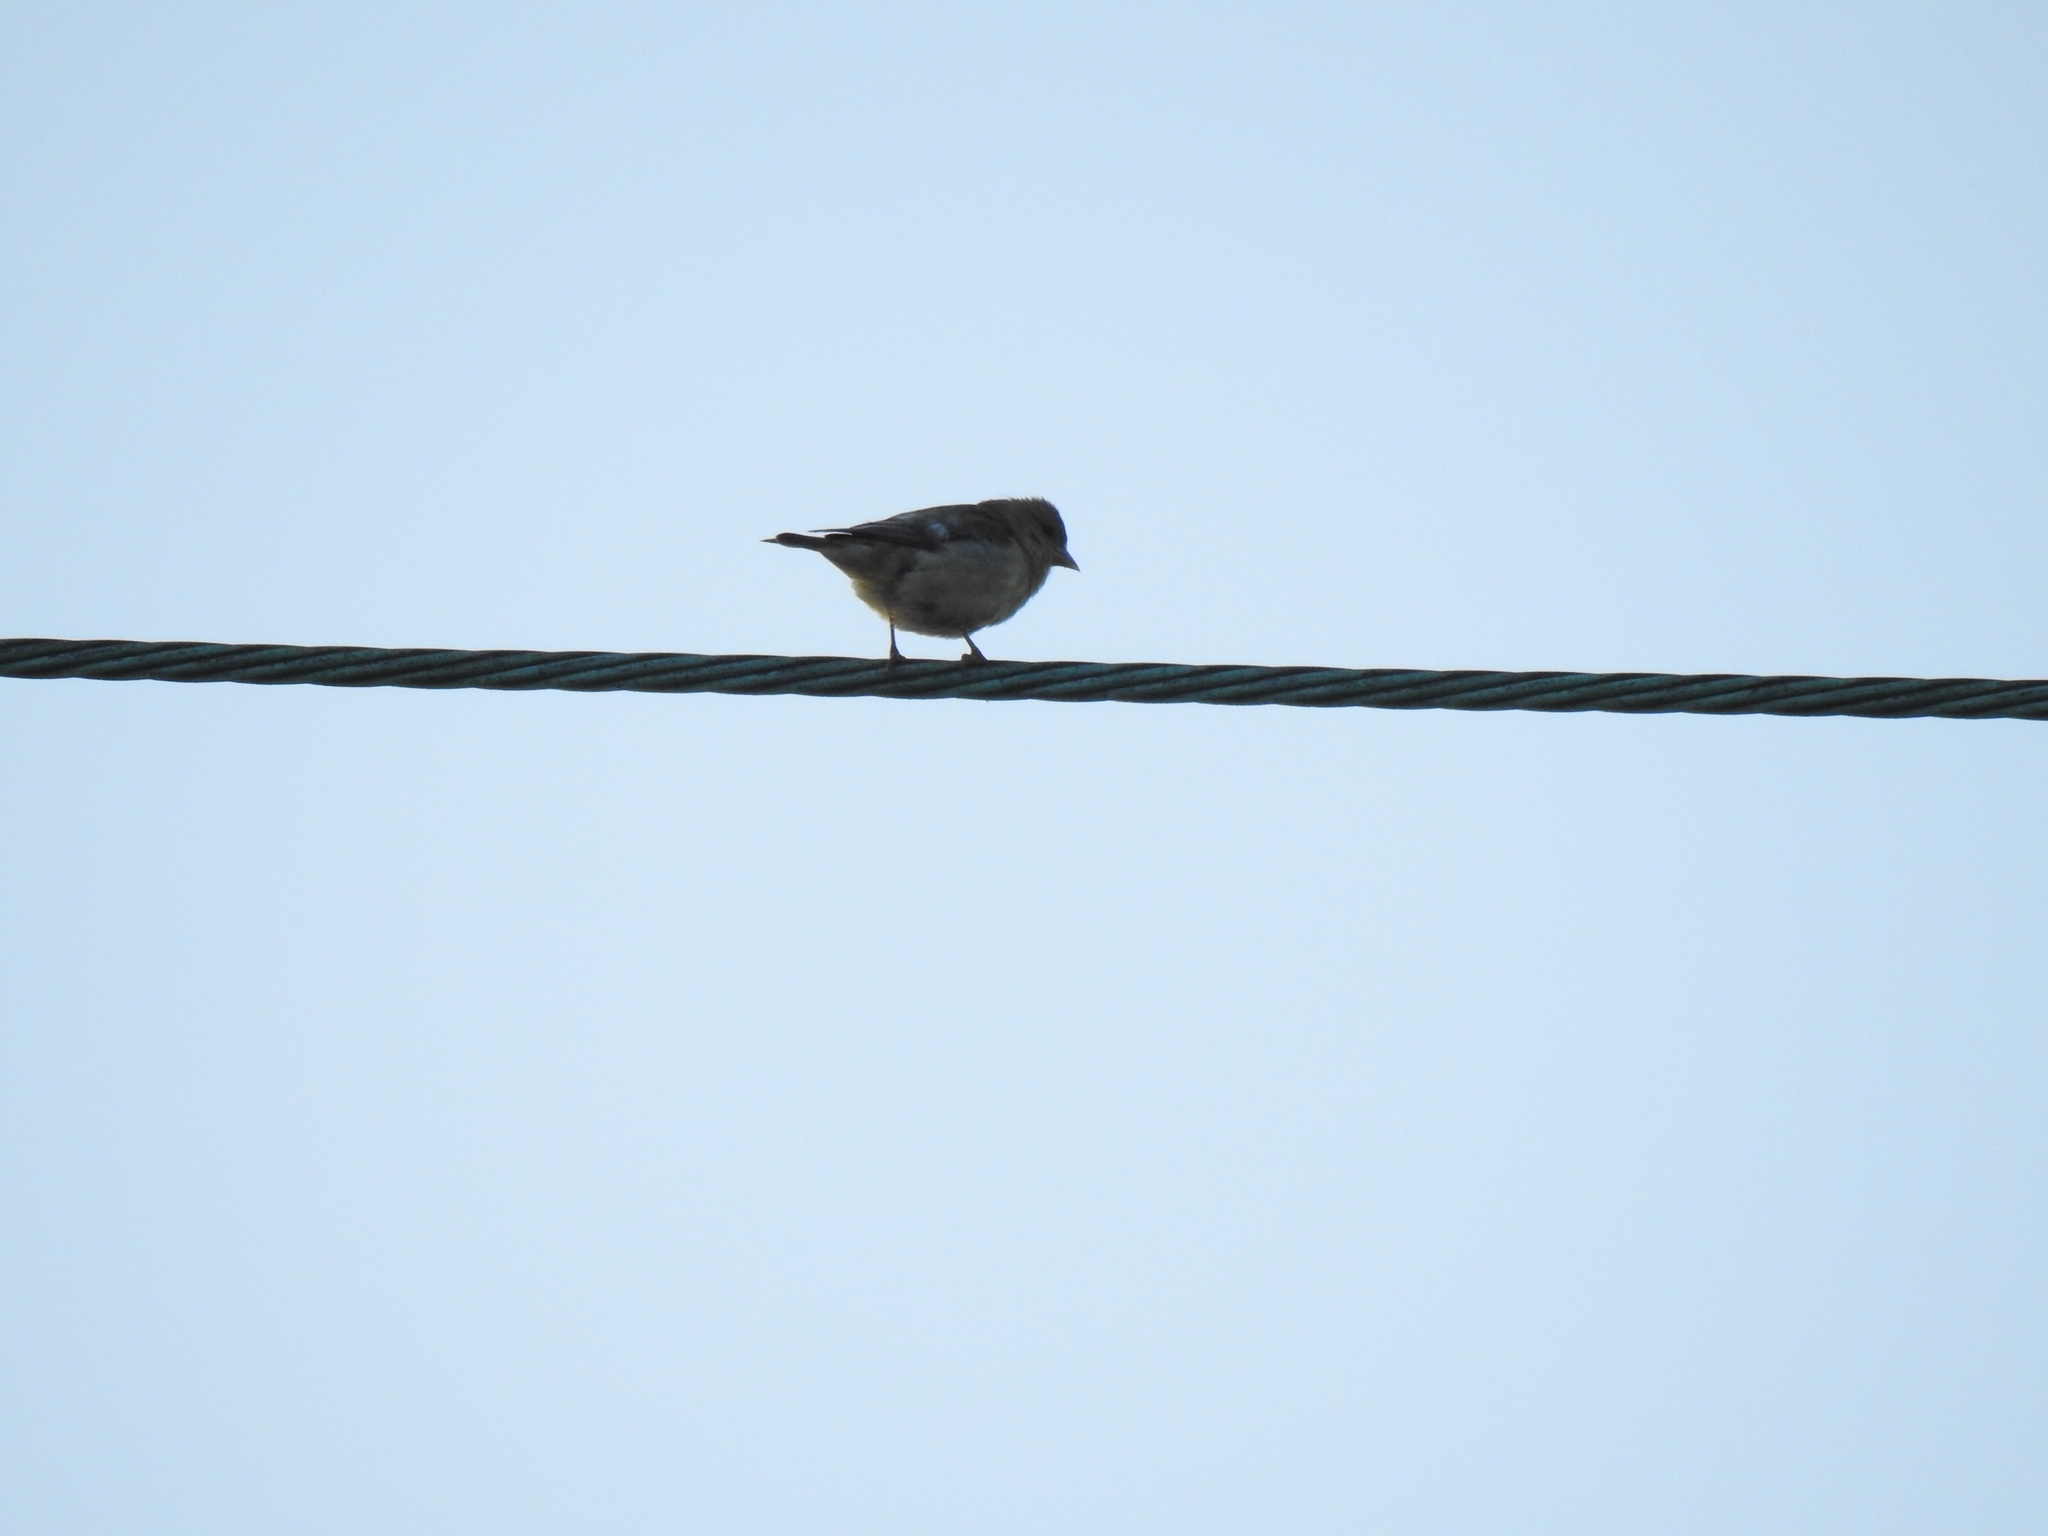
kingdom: Animalia
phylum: Chordata
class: Aves
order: Passeriformes
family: Fringillidae
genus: Spinus
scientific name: Spinus psaltria
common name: Lesser goldfinch
